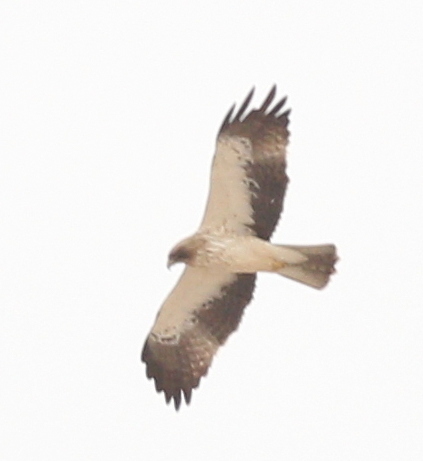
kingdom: Animalia
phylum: Chordata
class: Aves
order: Accipitriformes
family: Accipitridae
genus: Hieraaetus
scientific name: Hieraaetus pennatus
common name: Booted eagle
